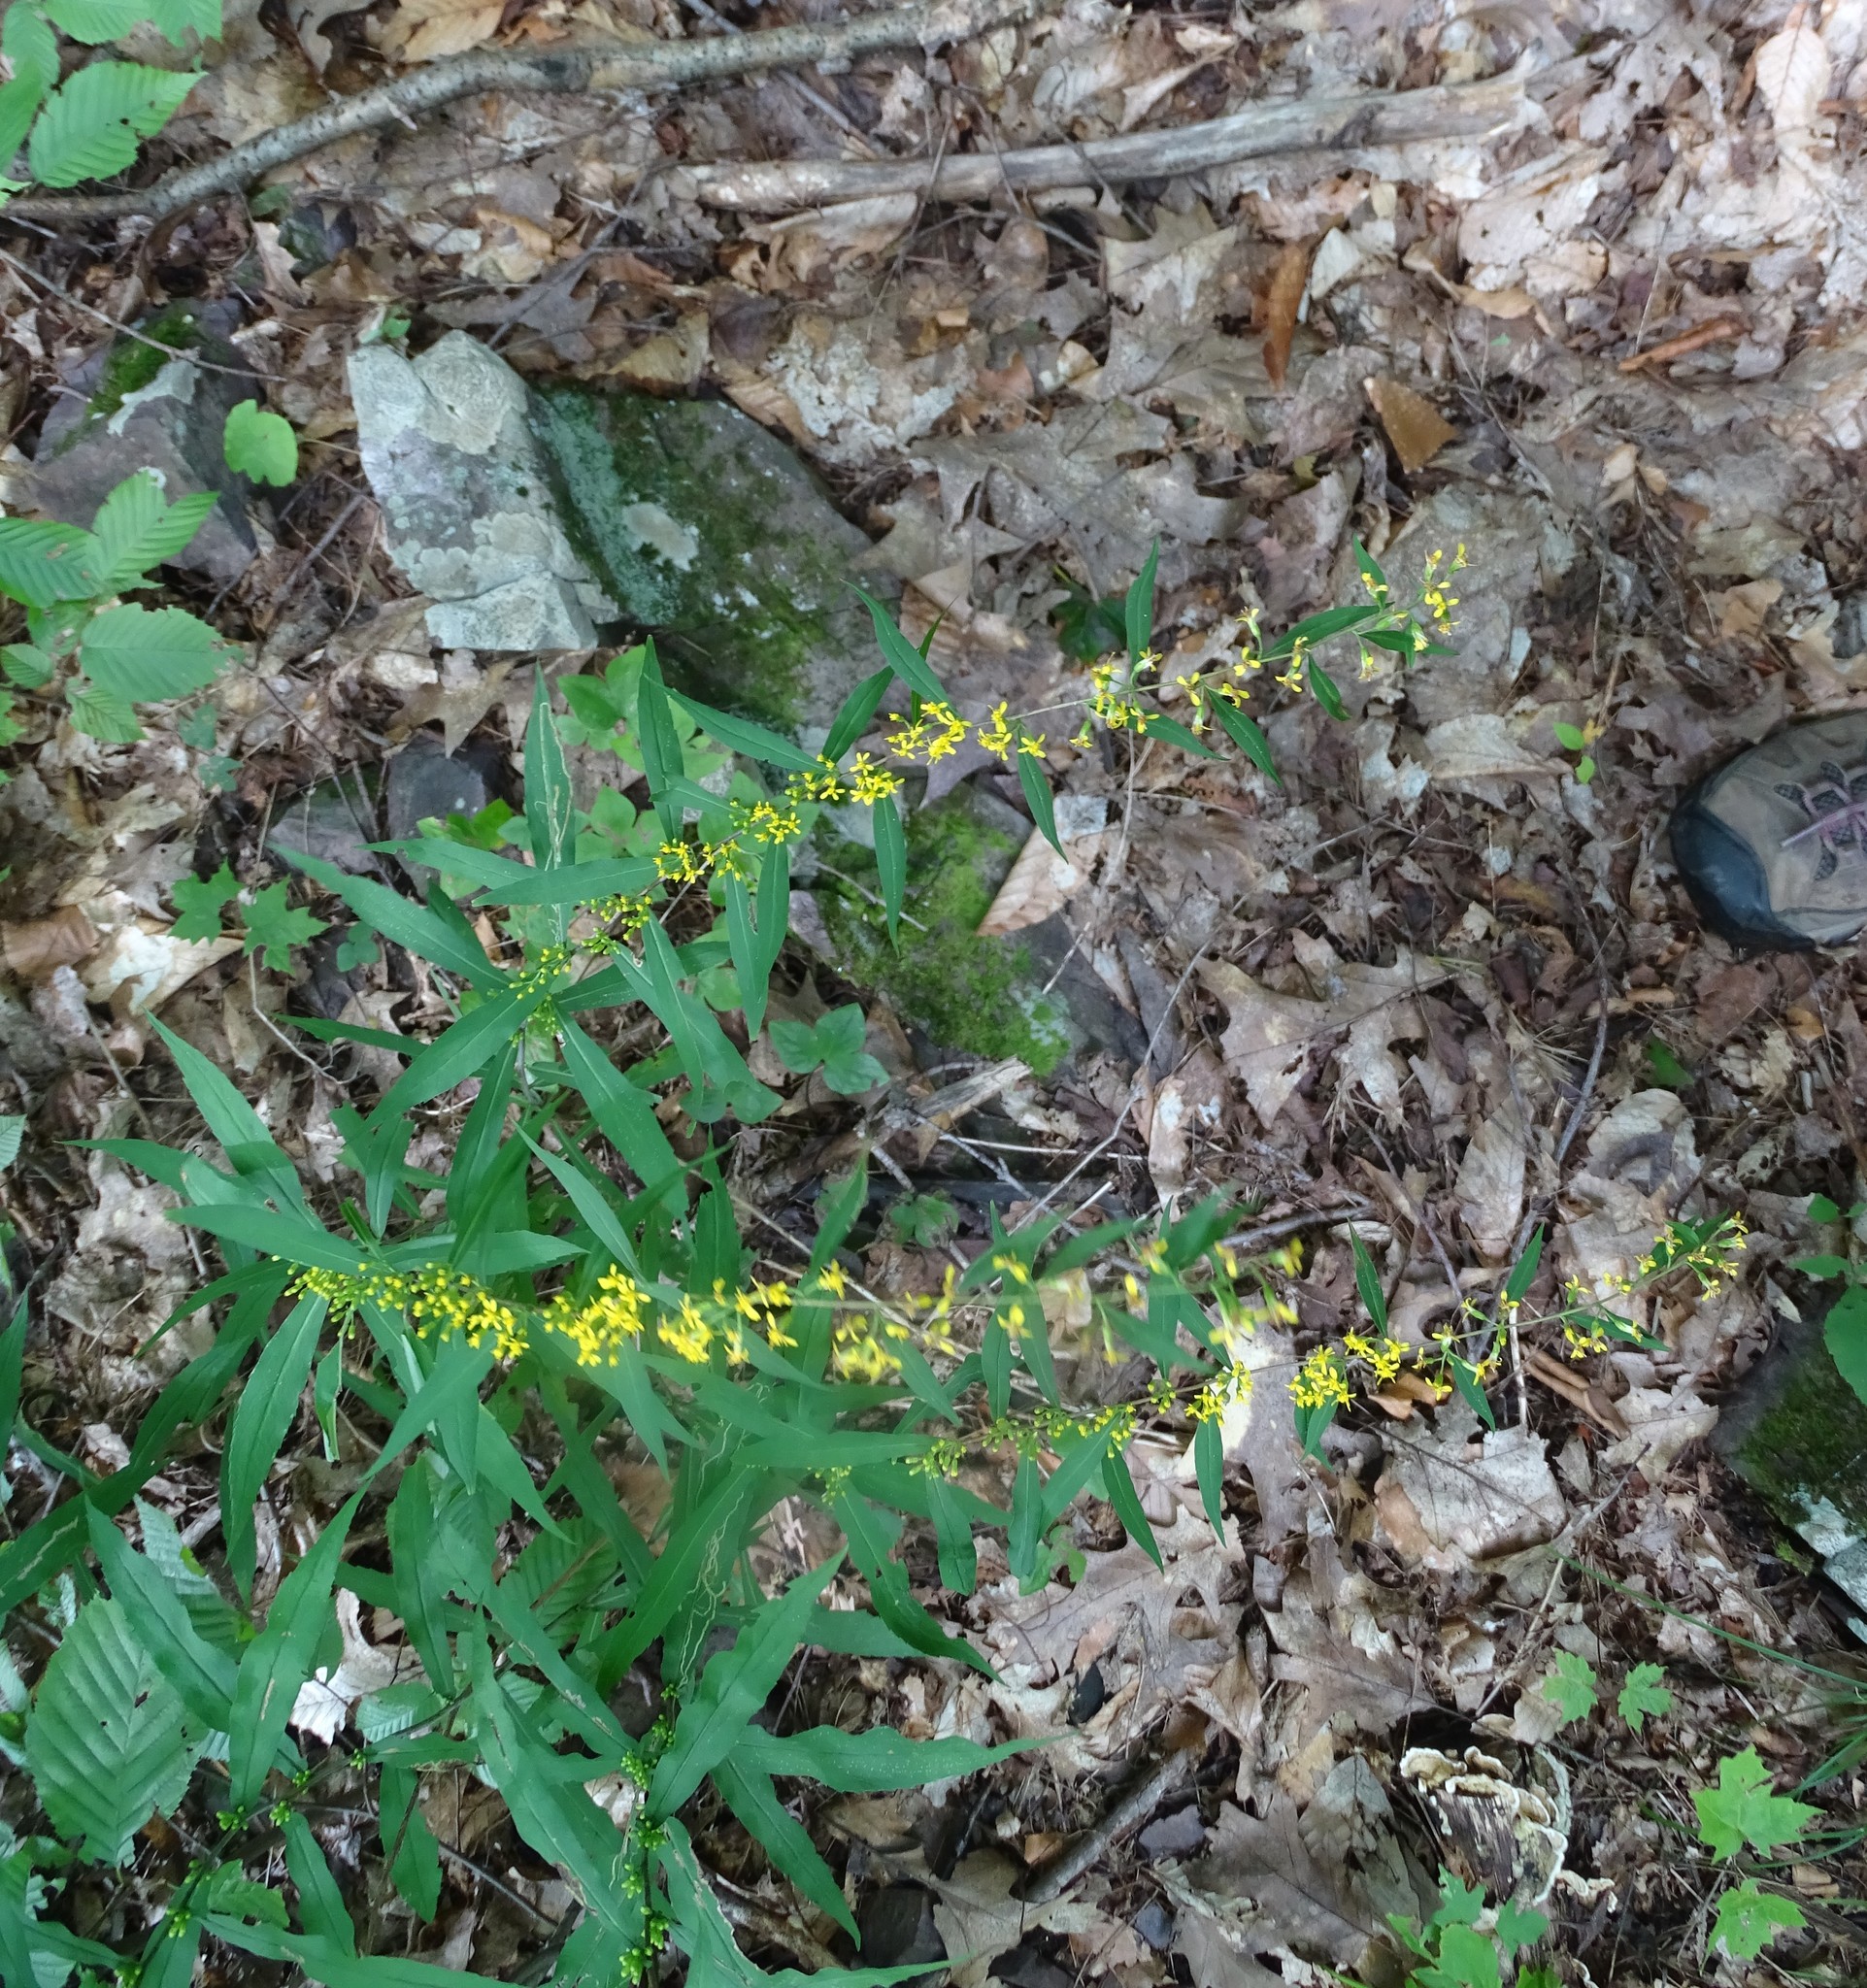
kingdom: Plantae
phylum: Tracheophyta
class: Magnoliopsida
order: Asterales
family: Asteraceae
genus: Solidago
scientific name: Solidago caesia
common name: Woodland goldenrod
